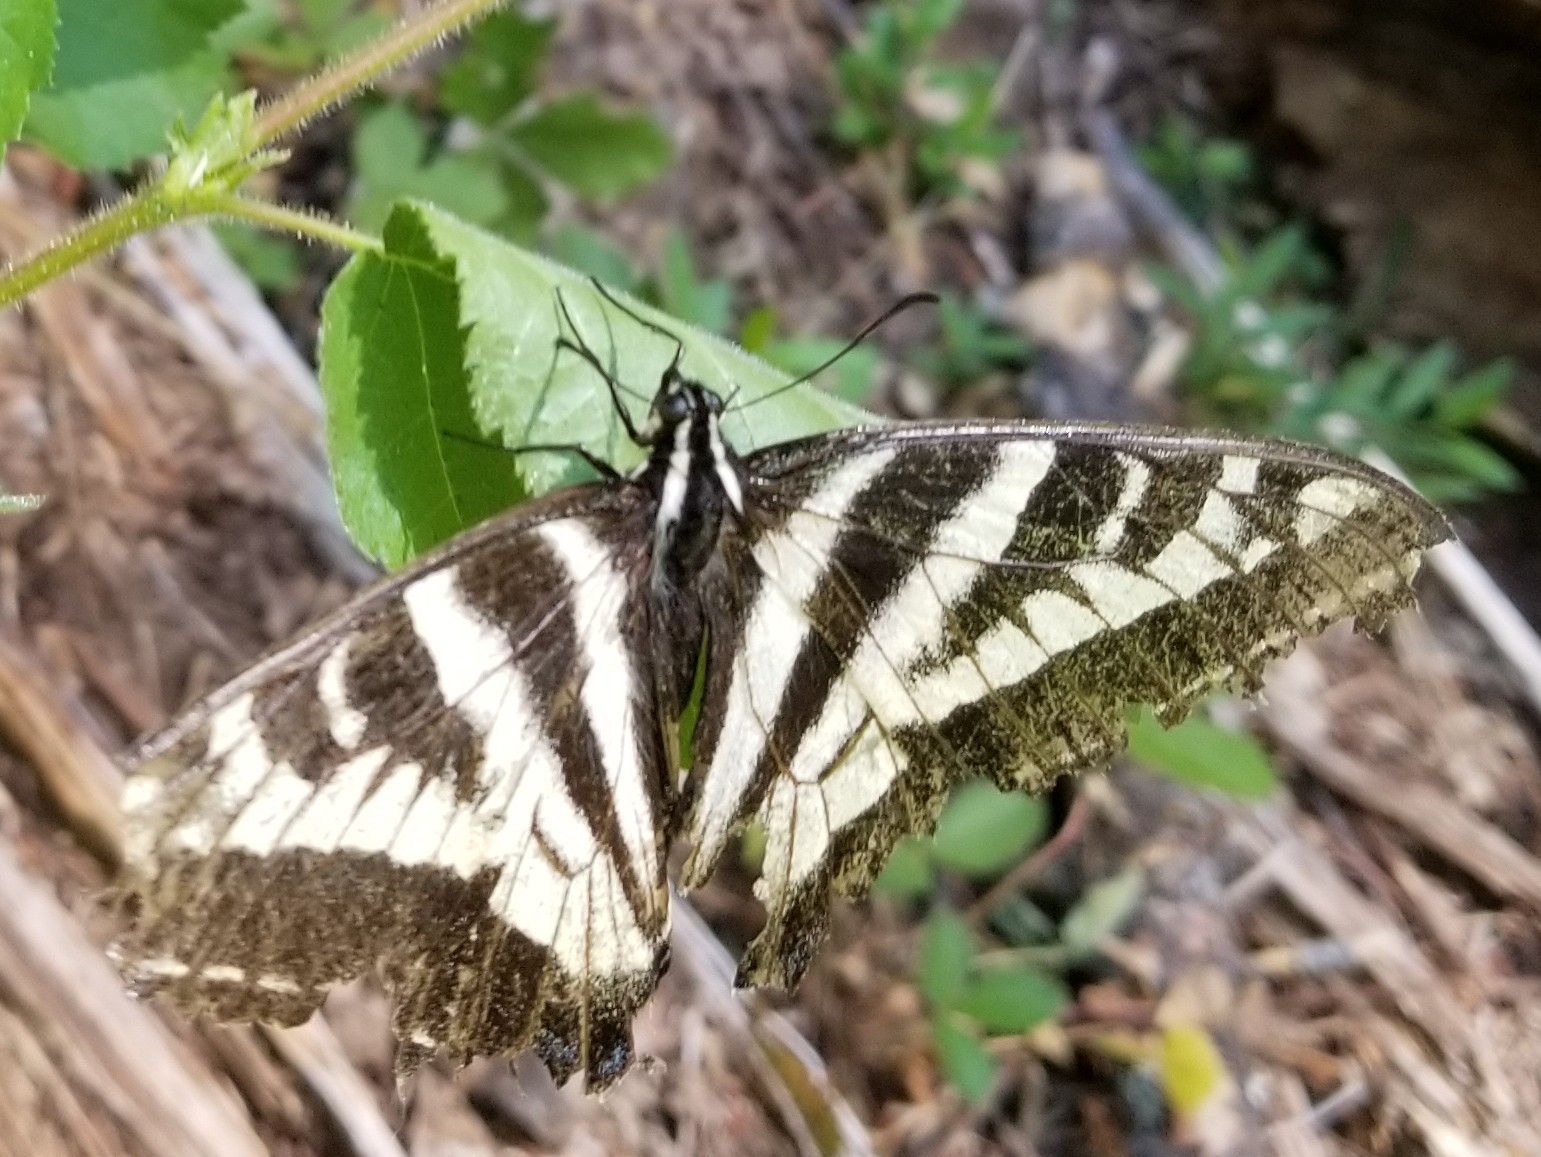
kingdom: Animalia
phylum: Arthropoda
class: Insecta
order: Lepidoptera
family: Papilionidae
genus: Papilio
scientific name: Papilio eurymedon
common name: Pale tiger swallowtail
